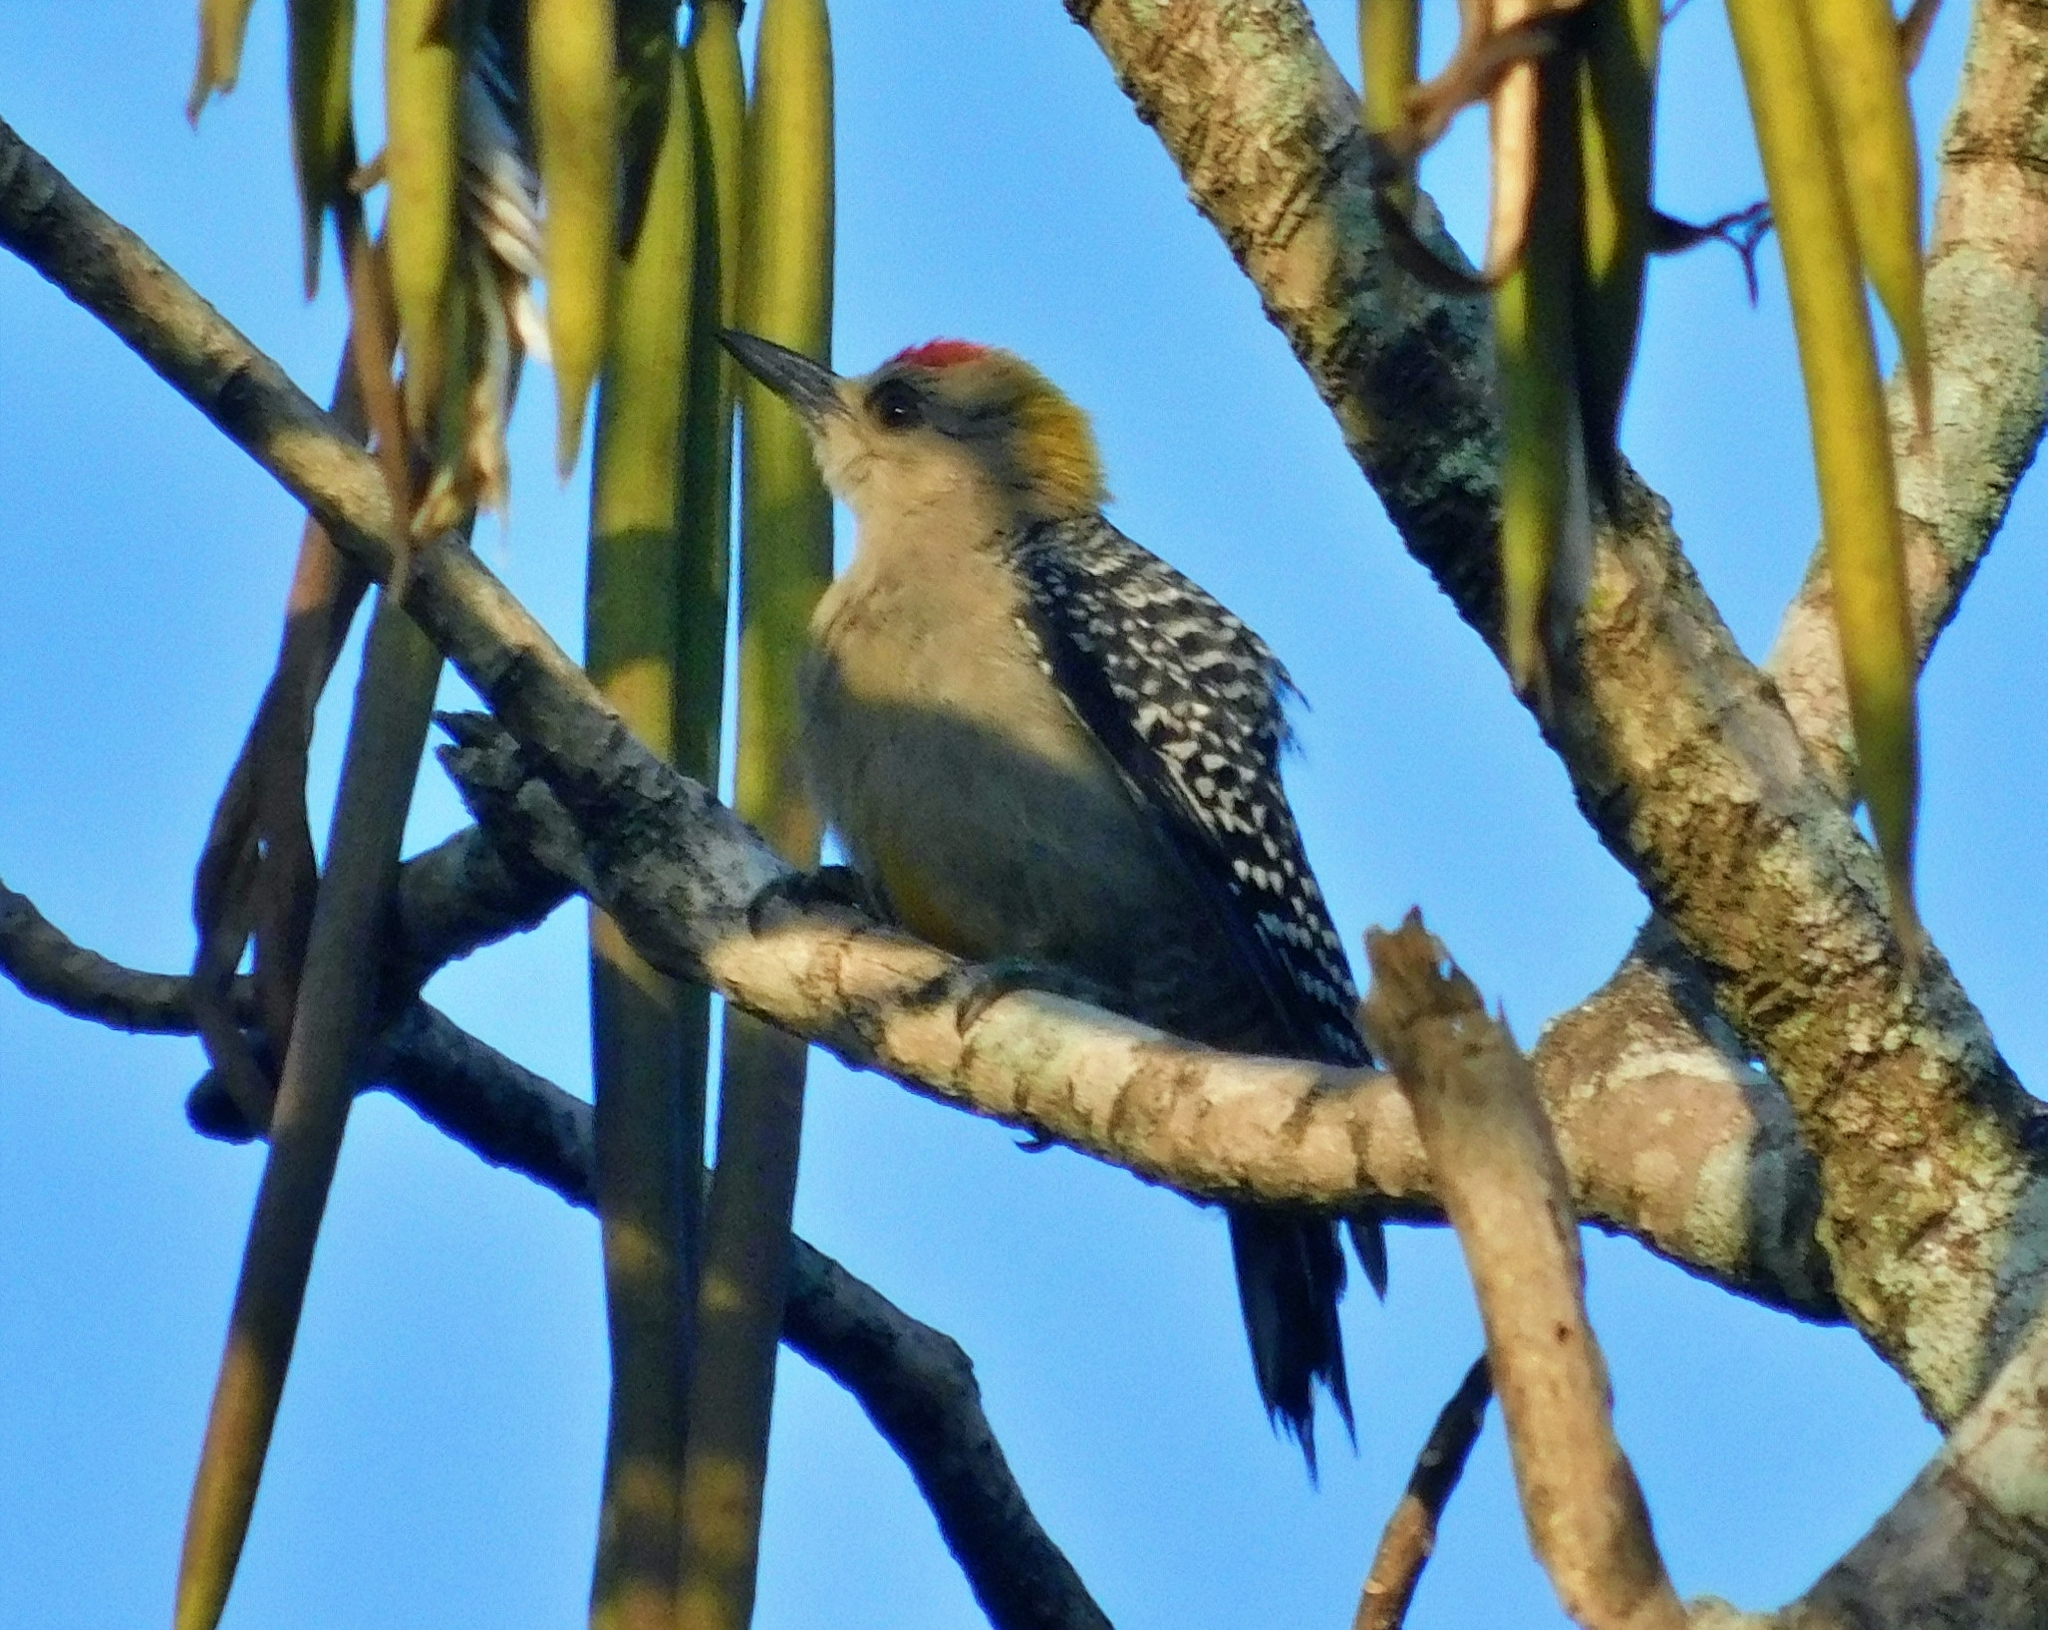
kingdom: Animalia
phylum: Chordata
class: Aves
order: Piciformes
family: Picidae
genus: Melanerpes
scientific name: Melanerpes hoffmannii
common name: Hoffmann's woodpecker
